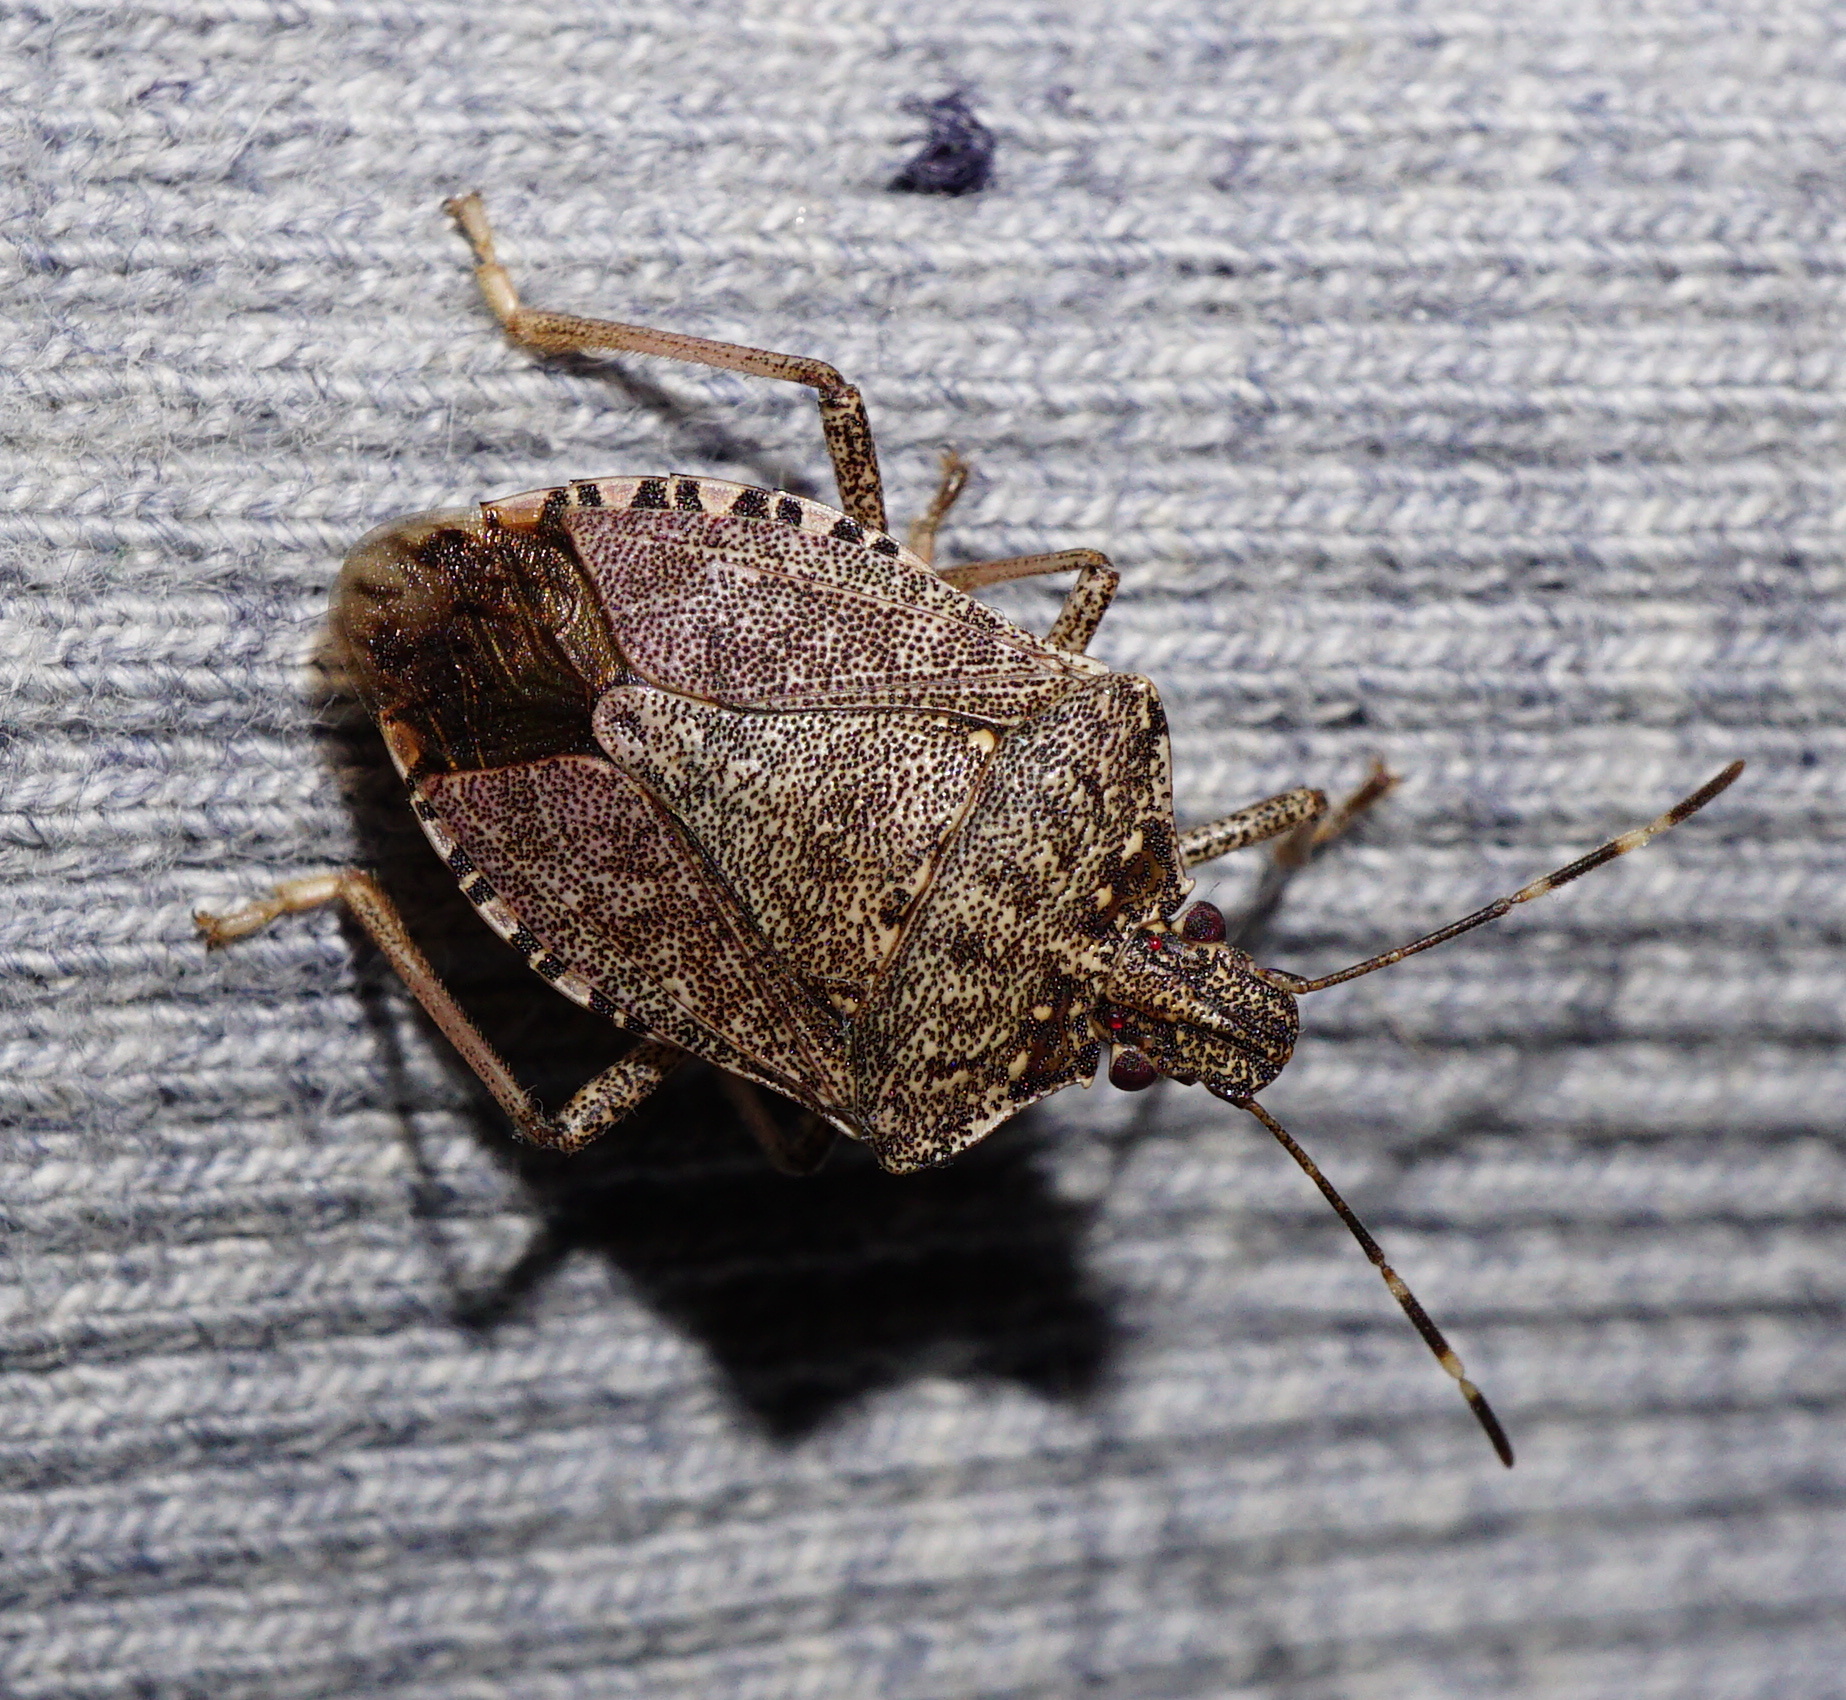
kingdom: Animalia
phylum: Arthropoda
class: Insecta
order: Hemiptera
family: Pentatomidae
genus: Halyomorpha
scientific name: Halyomorpha halys
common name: Brown marmorated stink bug
